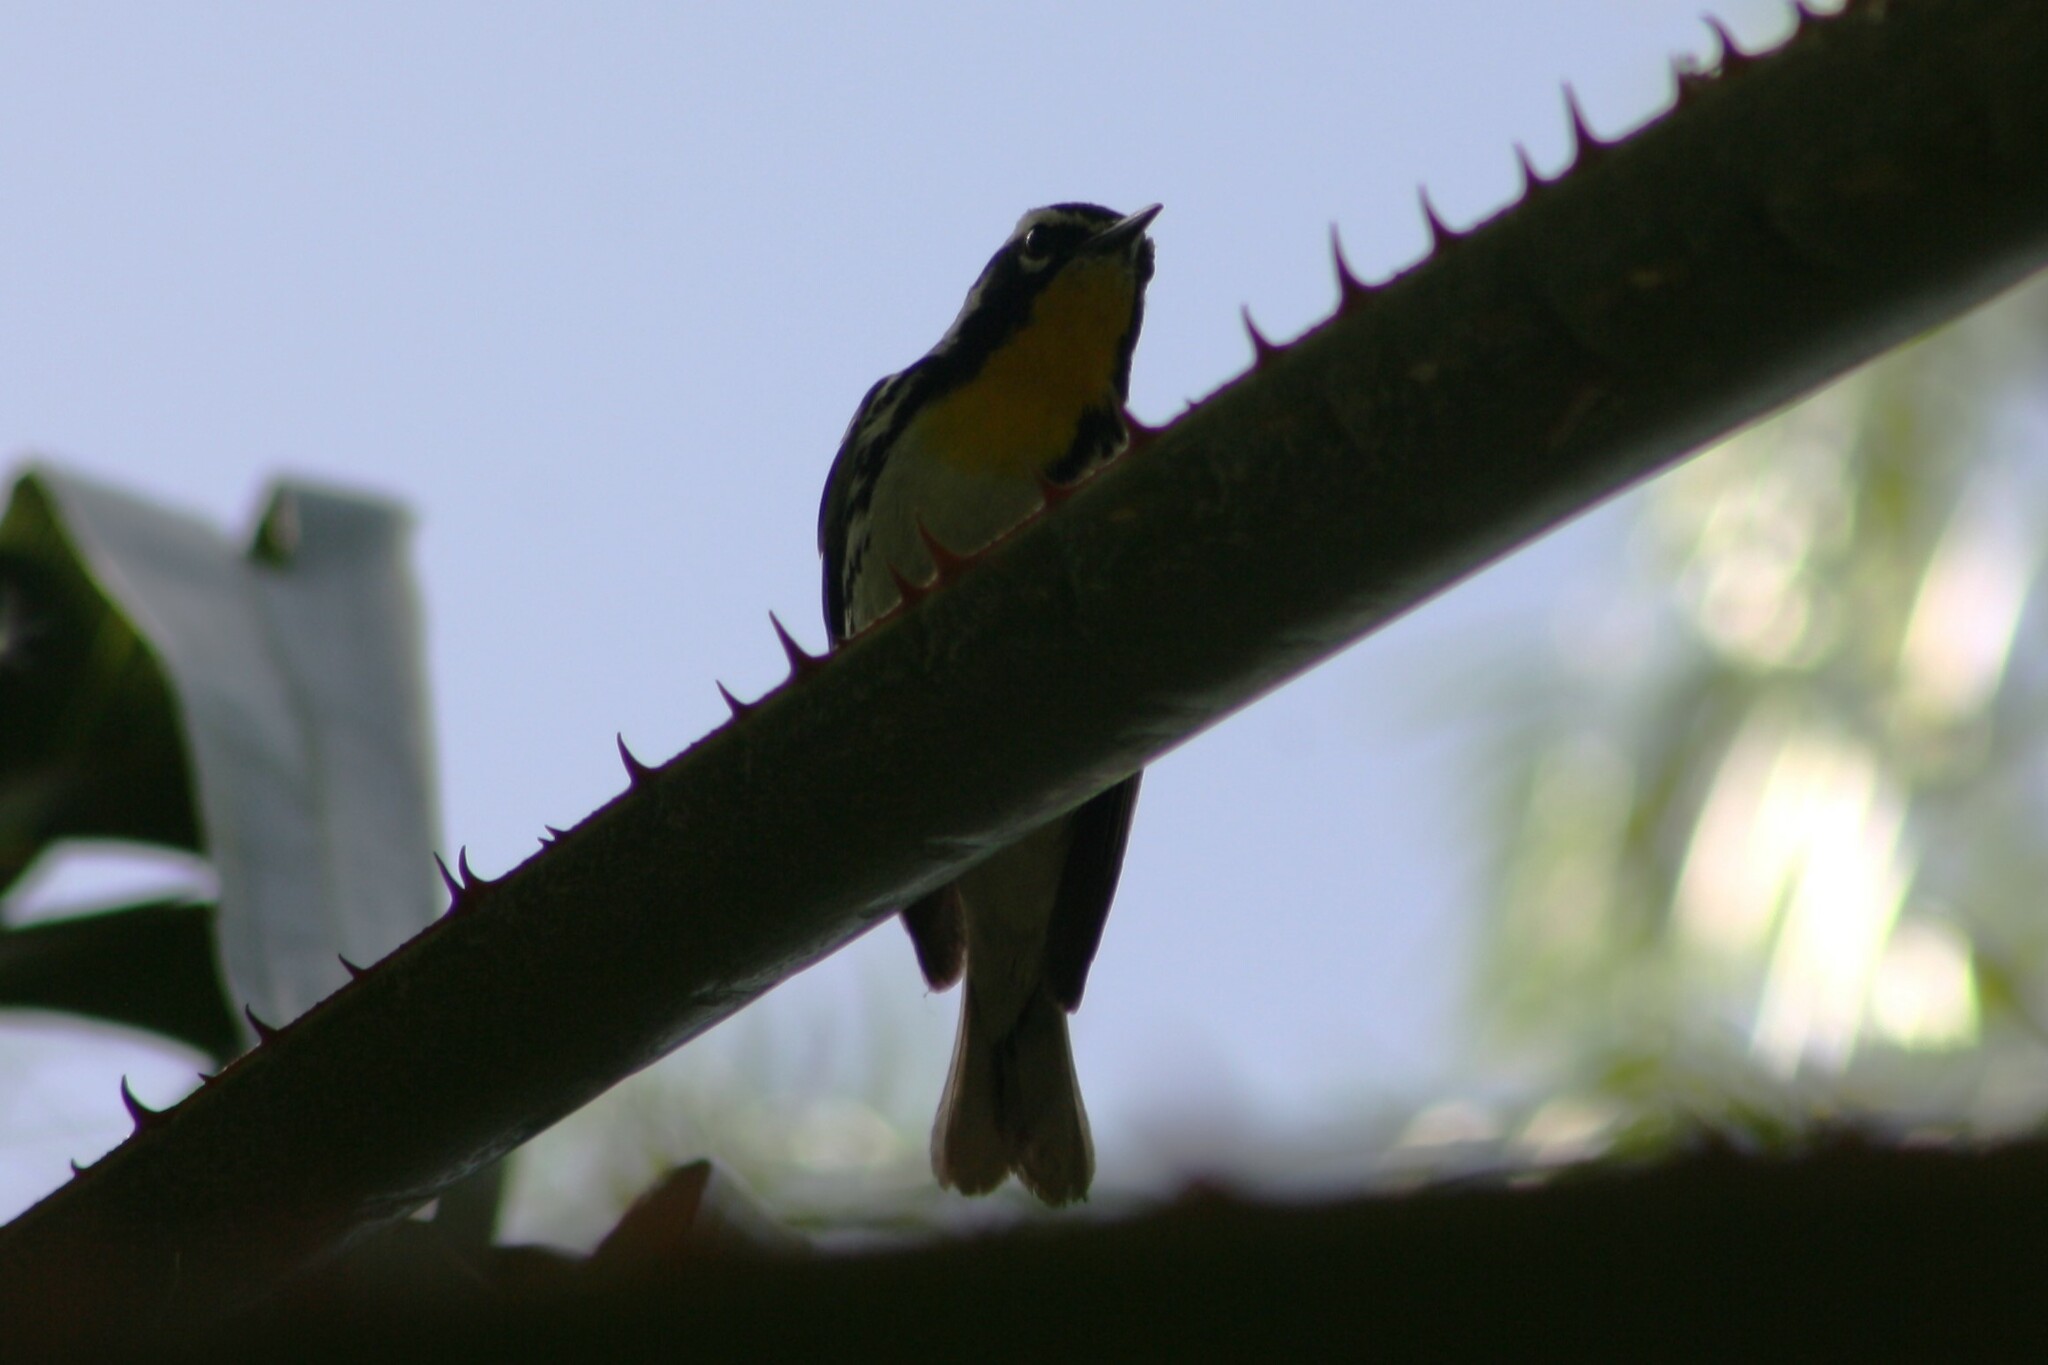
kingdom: Animalia
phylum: Chordata
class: Aves
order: Passeriformes
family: Parulidae
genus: Setophaga
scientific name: Setophaga dominica
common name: Yellow-throated warbler
